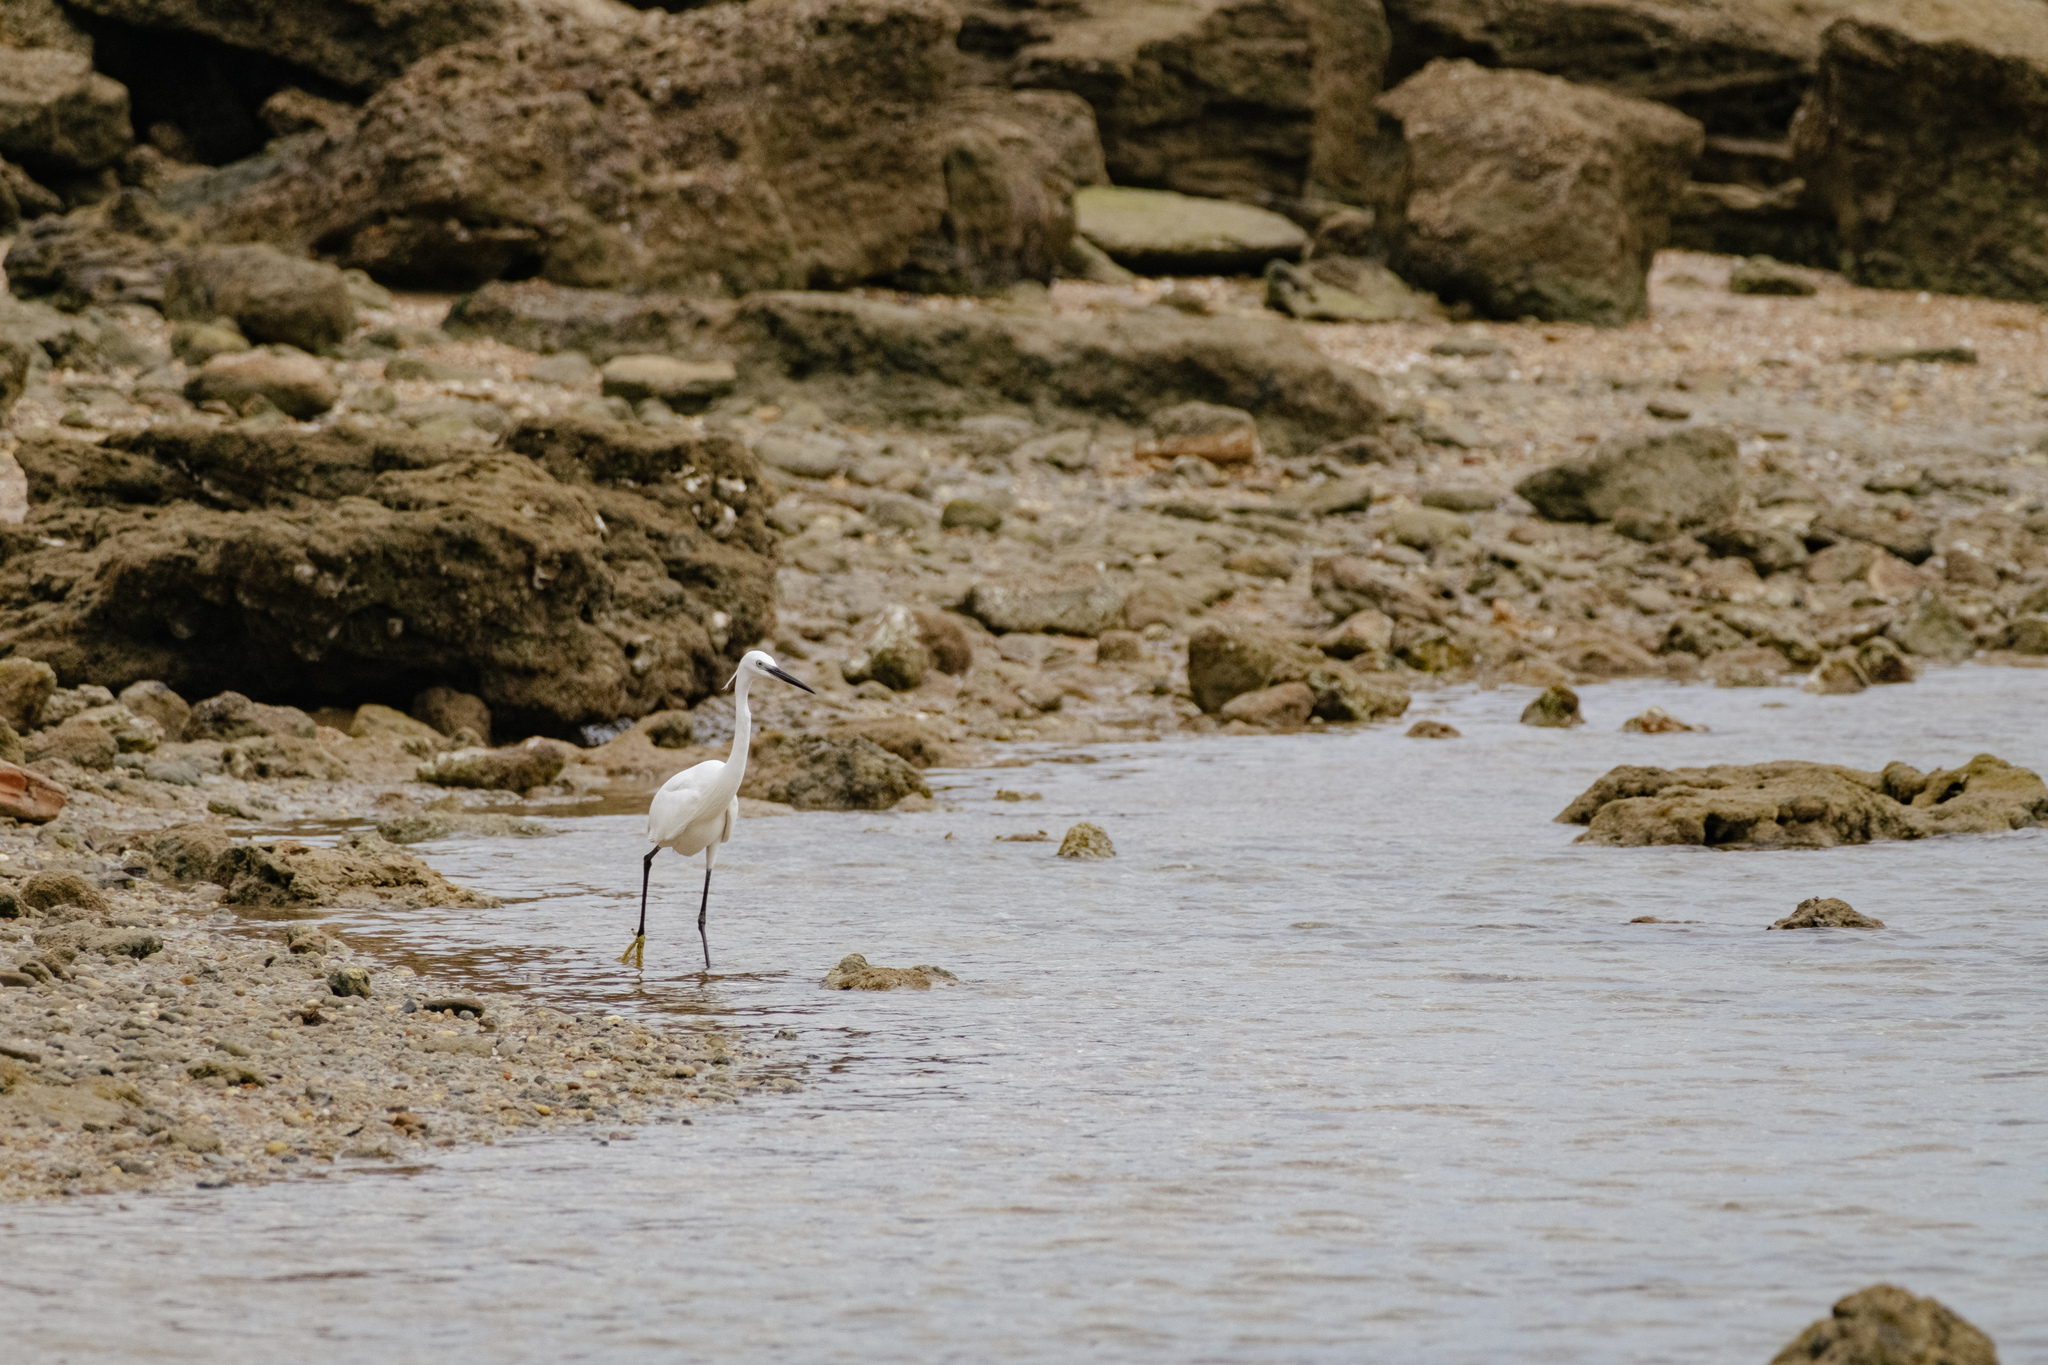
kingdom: Animalia
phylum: Chordata
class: Aves
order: Pelecaniformes
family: Ardeidae
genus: Egretta
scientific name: Egretta garzetta
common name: Little egret
